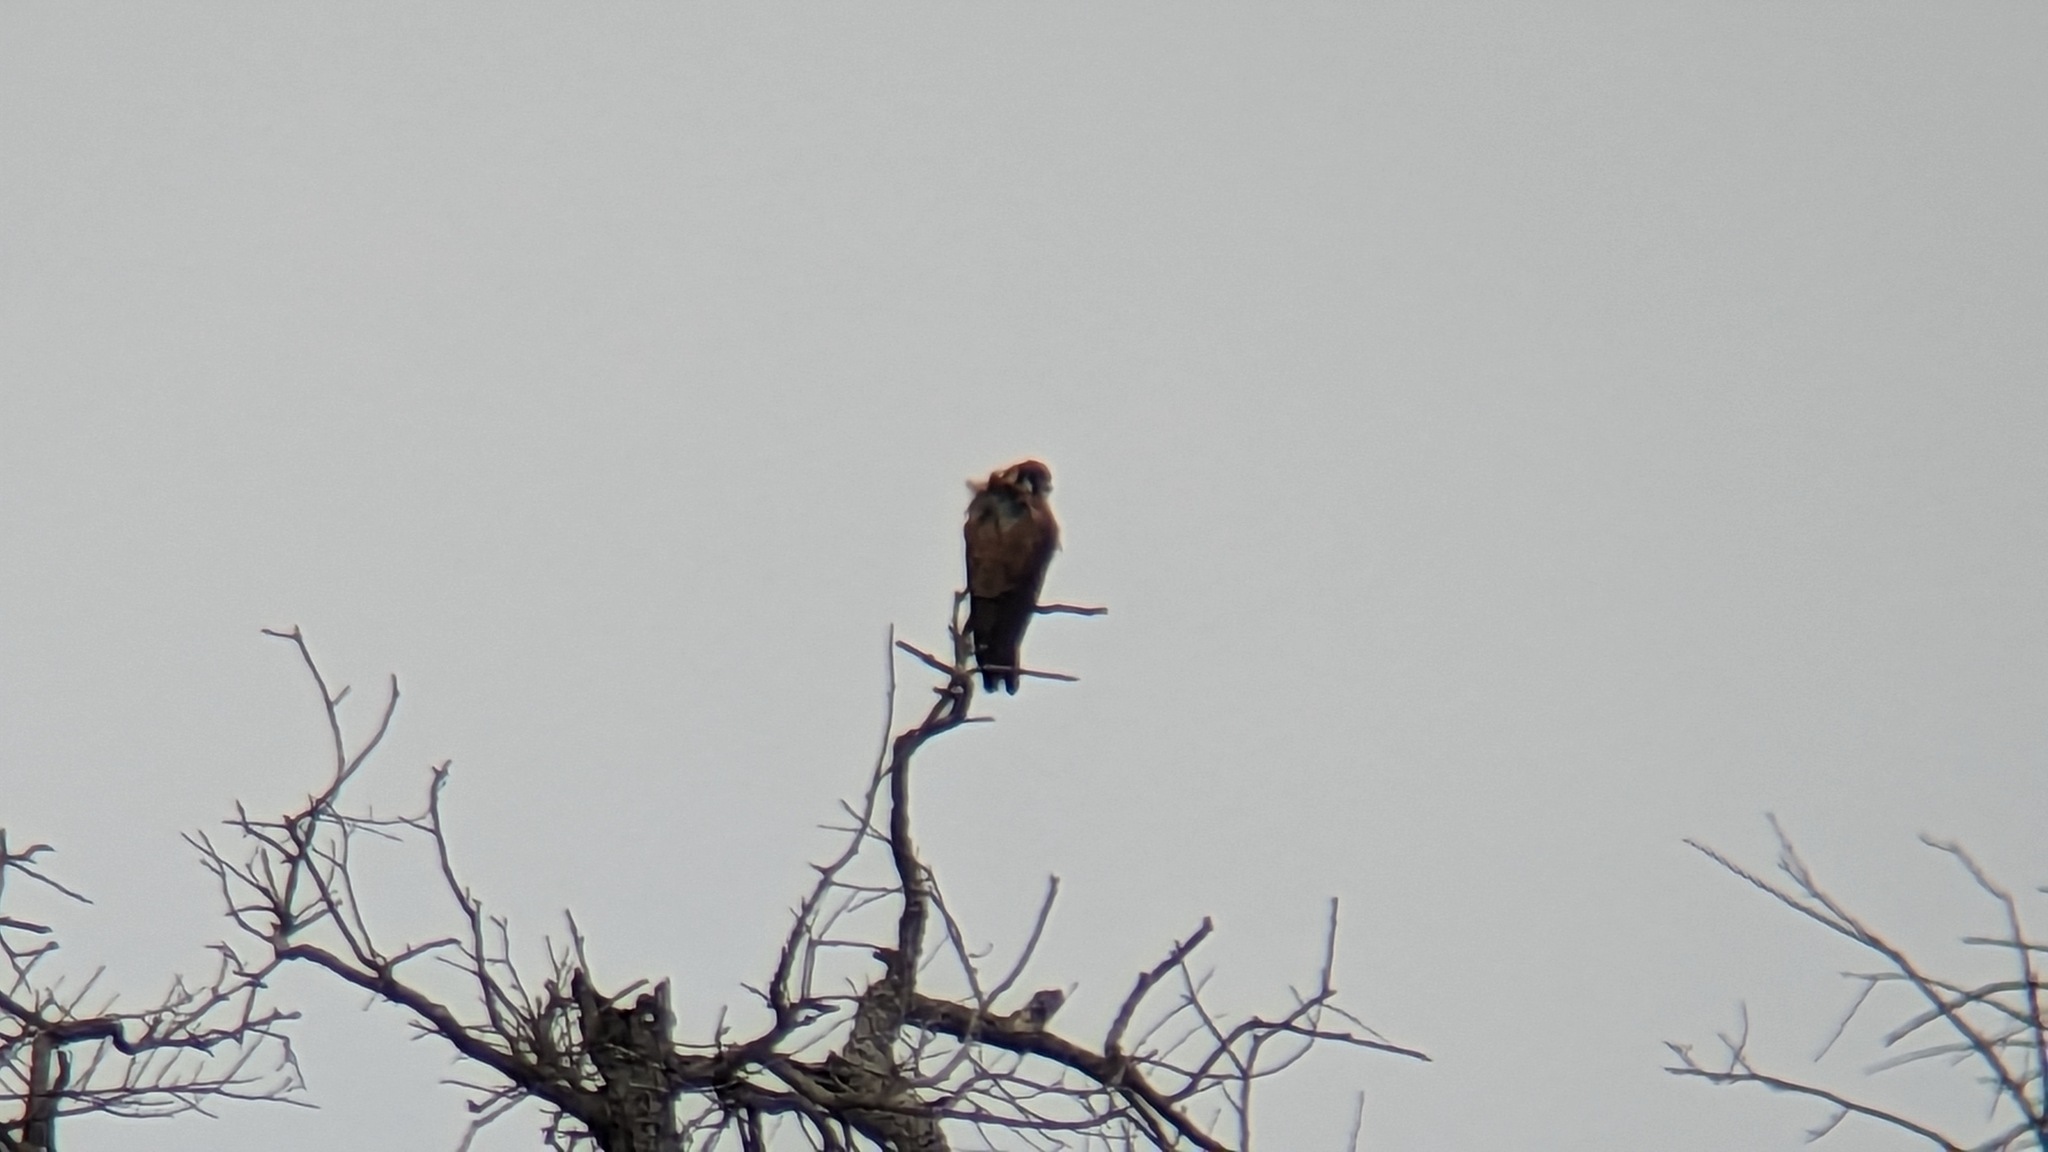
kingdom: Animalia
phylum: Chordata
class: Aves
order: Falconiformes
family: Falconidae
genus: Falco
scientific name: Falco sparverius
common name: American kestrel
